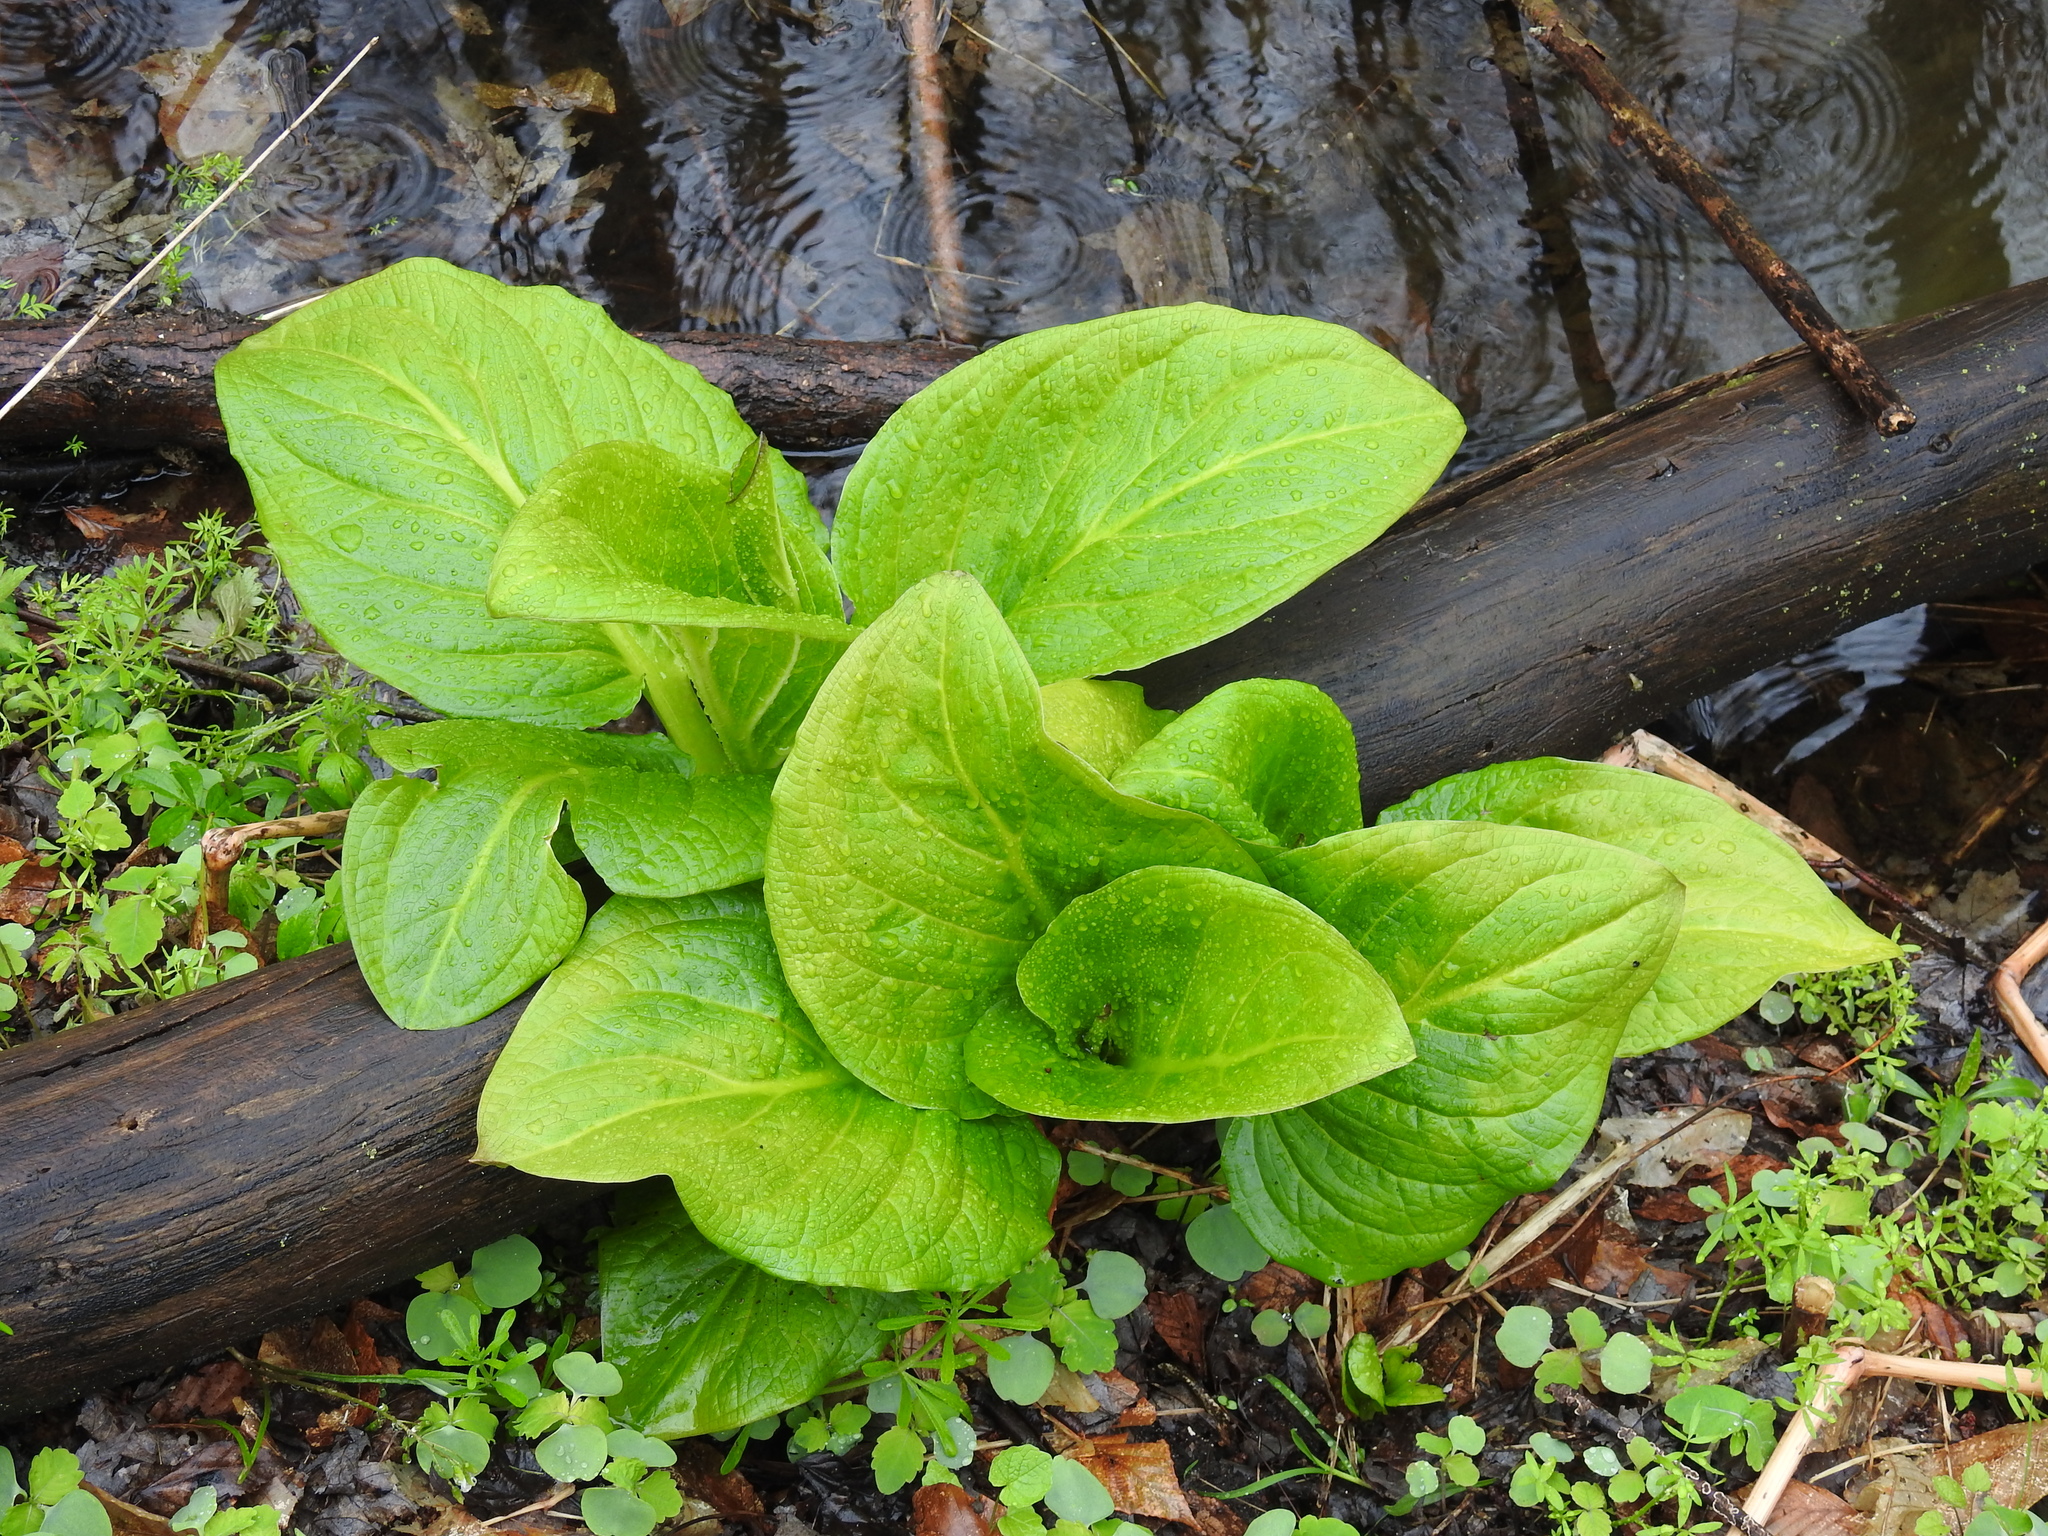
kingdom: Plantae
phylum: Tracheophyta
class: Liliopsida
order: Alismatales
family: Araceae
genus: Symplocarpus
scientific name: Symplocarpus foetidus
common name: Eastern skunk cabbage
